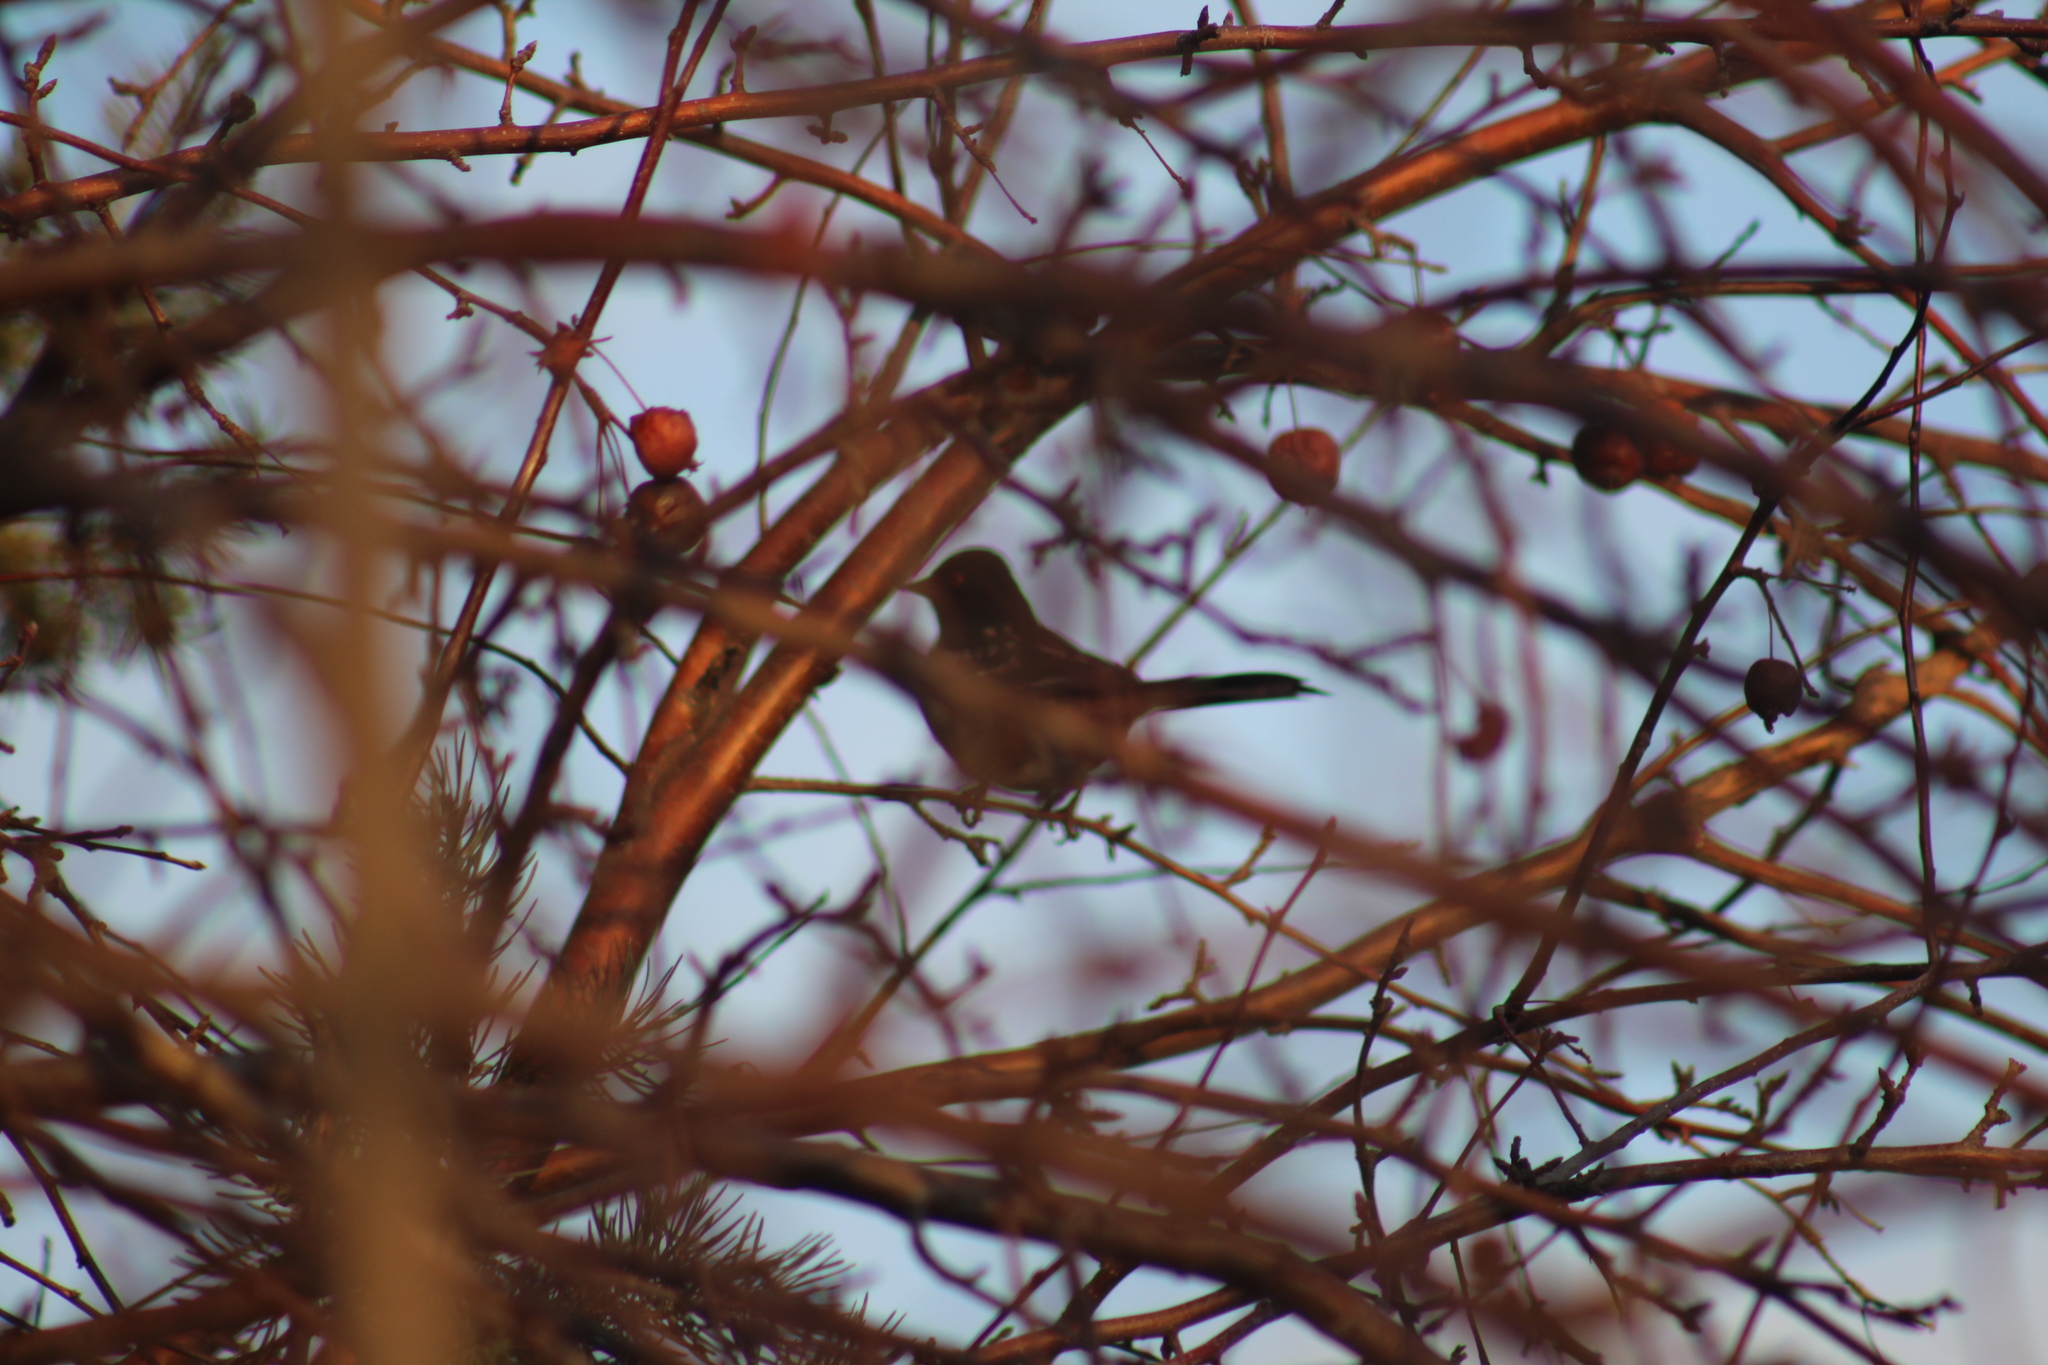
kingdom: Animalia
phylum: Chordata
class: Aves
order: Passeriformes
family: Passerellidae
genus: Pipilo
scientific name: Pipilo maculatus
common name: Spotted towhee
